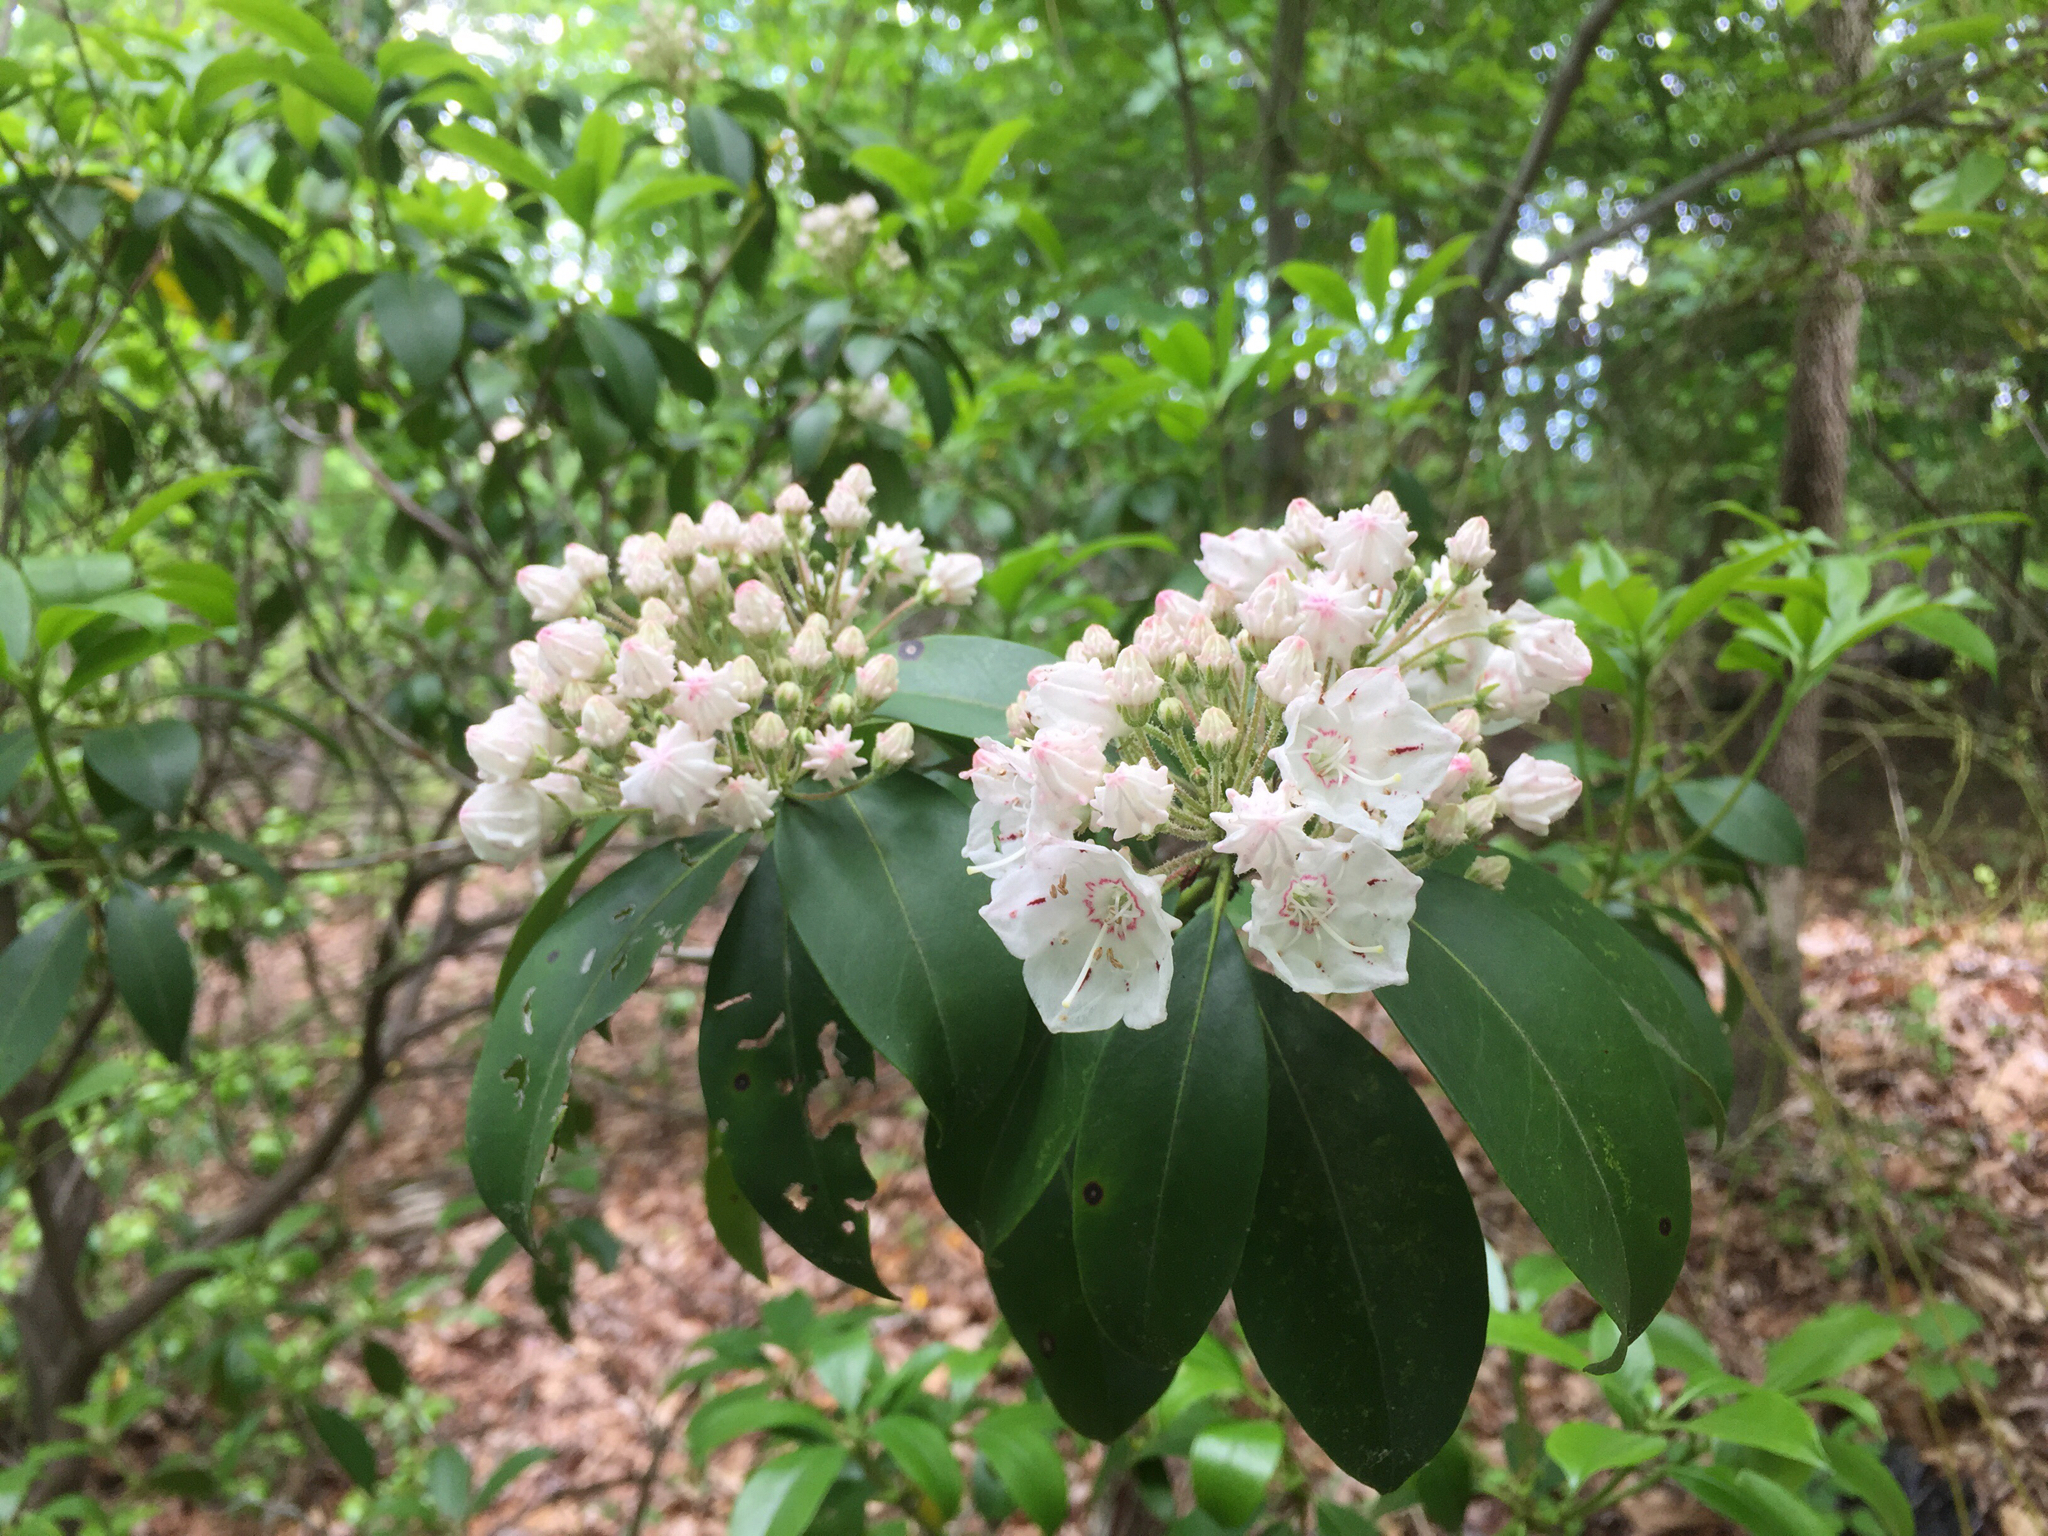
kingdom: Plantae
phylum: Tracheophyta
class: Magnoliopsida
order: Ericales
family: Ericaceae
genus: Kalmia
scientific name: Kalmia latifolia
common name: Mountain-laurel
